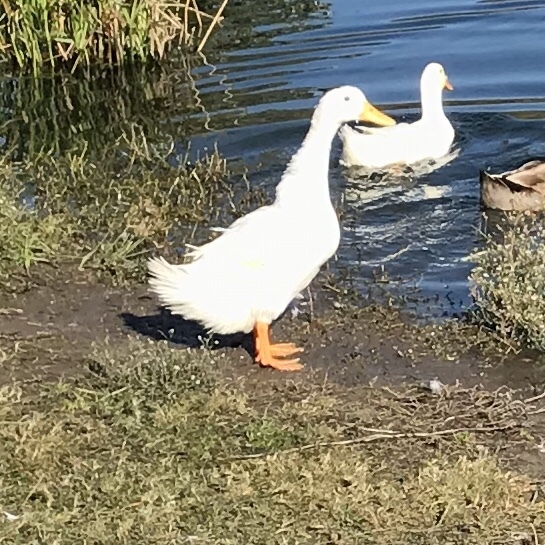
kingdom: Animalia
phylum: Chordata
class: Aves
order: Anseriformes
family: Anatidae
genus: Anas
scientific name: Anas platyrhynchos
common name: Mallard
